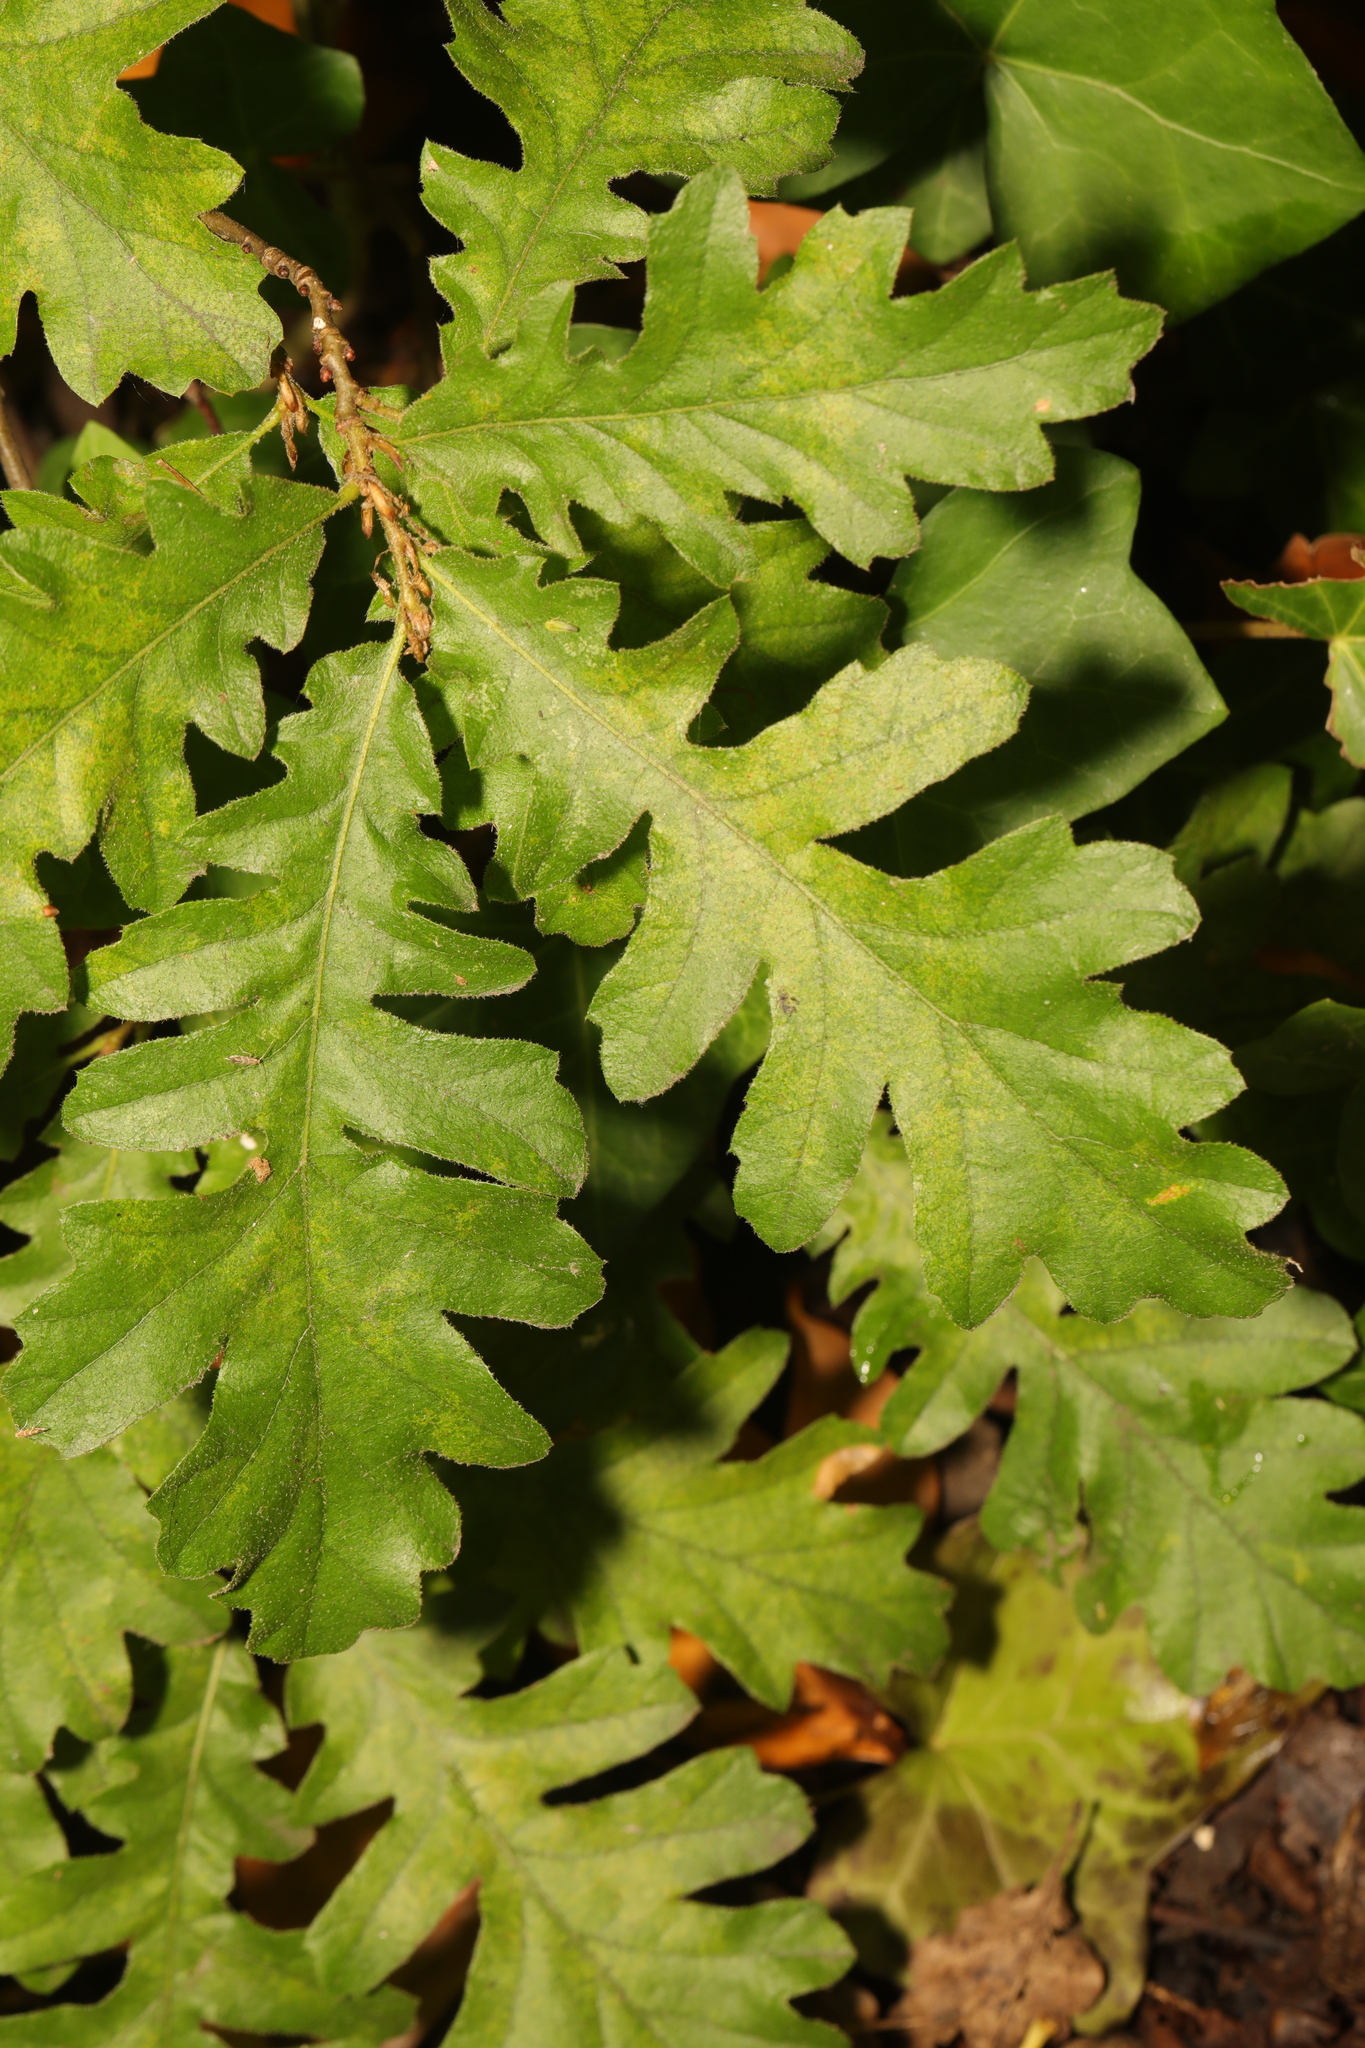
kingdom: Plantae
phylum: Tracheophyta
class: Magnoliopsida
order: Fagales
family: Fagaceae
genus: Quercus
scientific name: Quercus cerris
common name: Turkey oak
